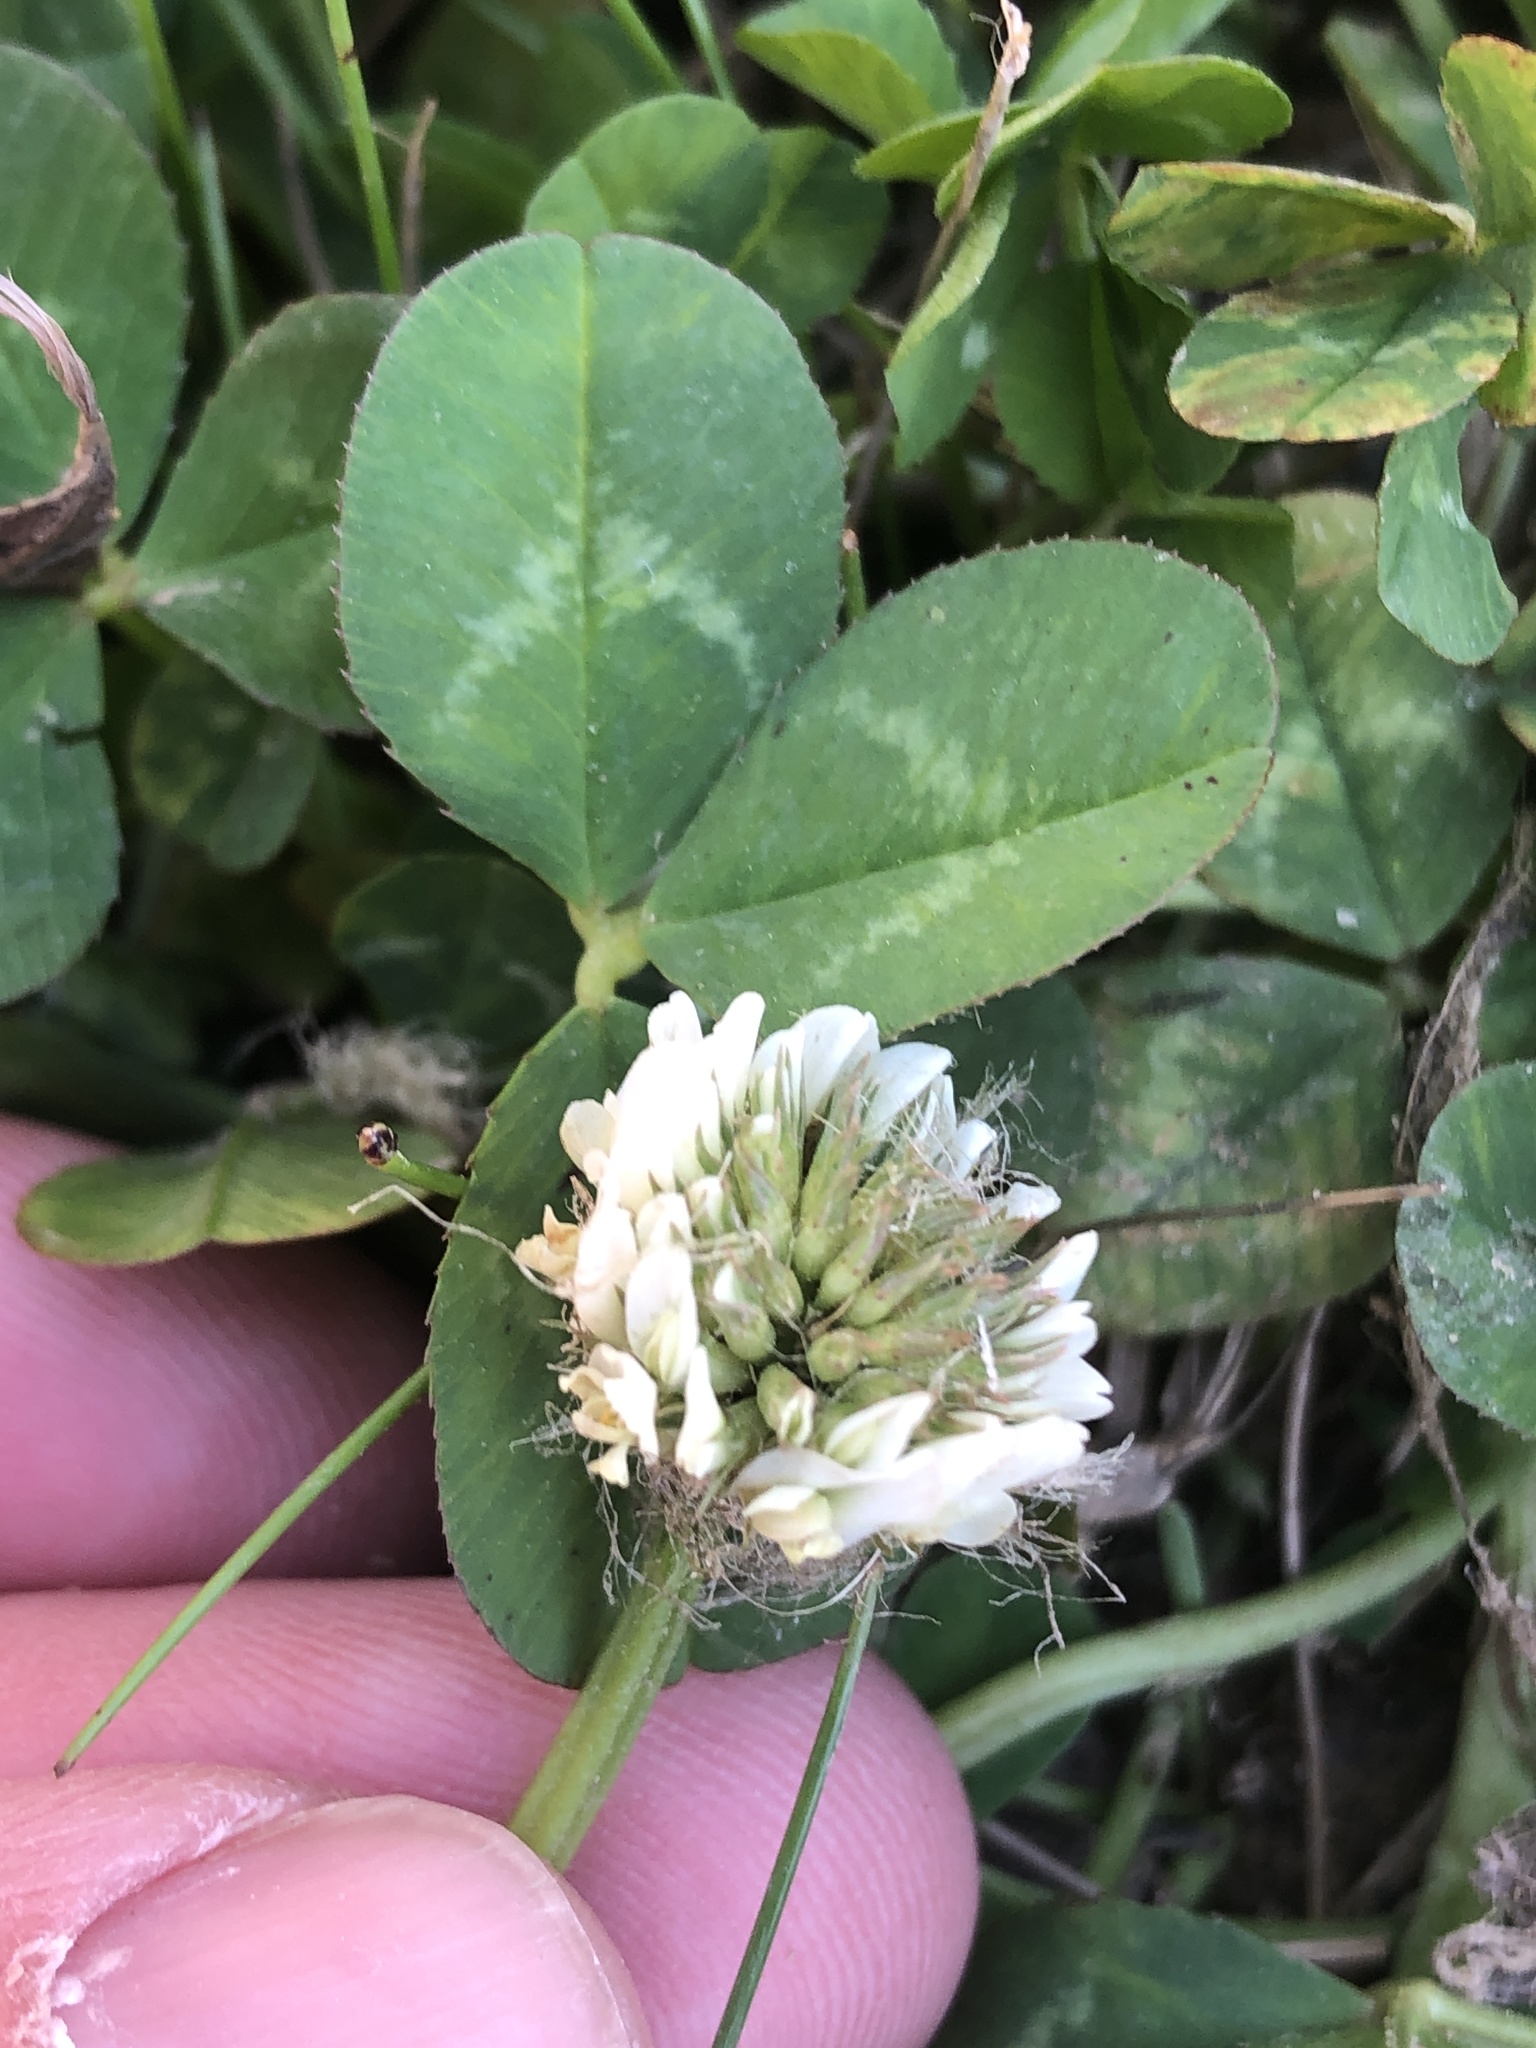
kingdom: Plantae
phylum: Tracheophyta
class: Magnoliopsida
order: Fabales
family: Fabaceae
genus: Trifolium
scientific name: Trifolium repens
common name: White clover
